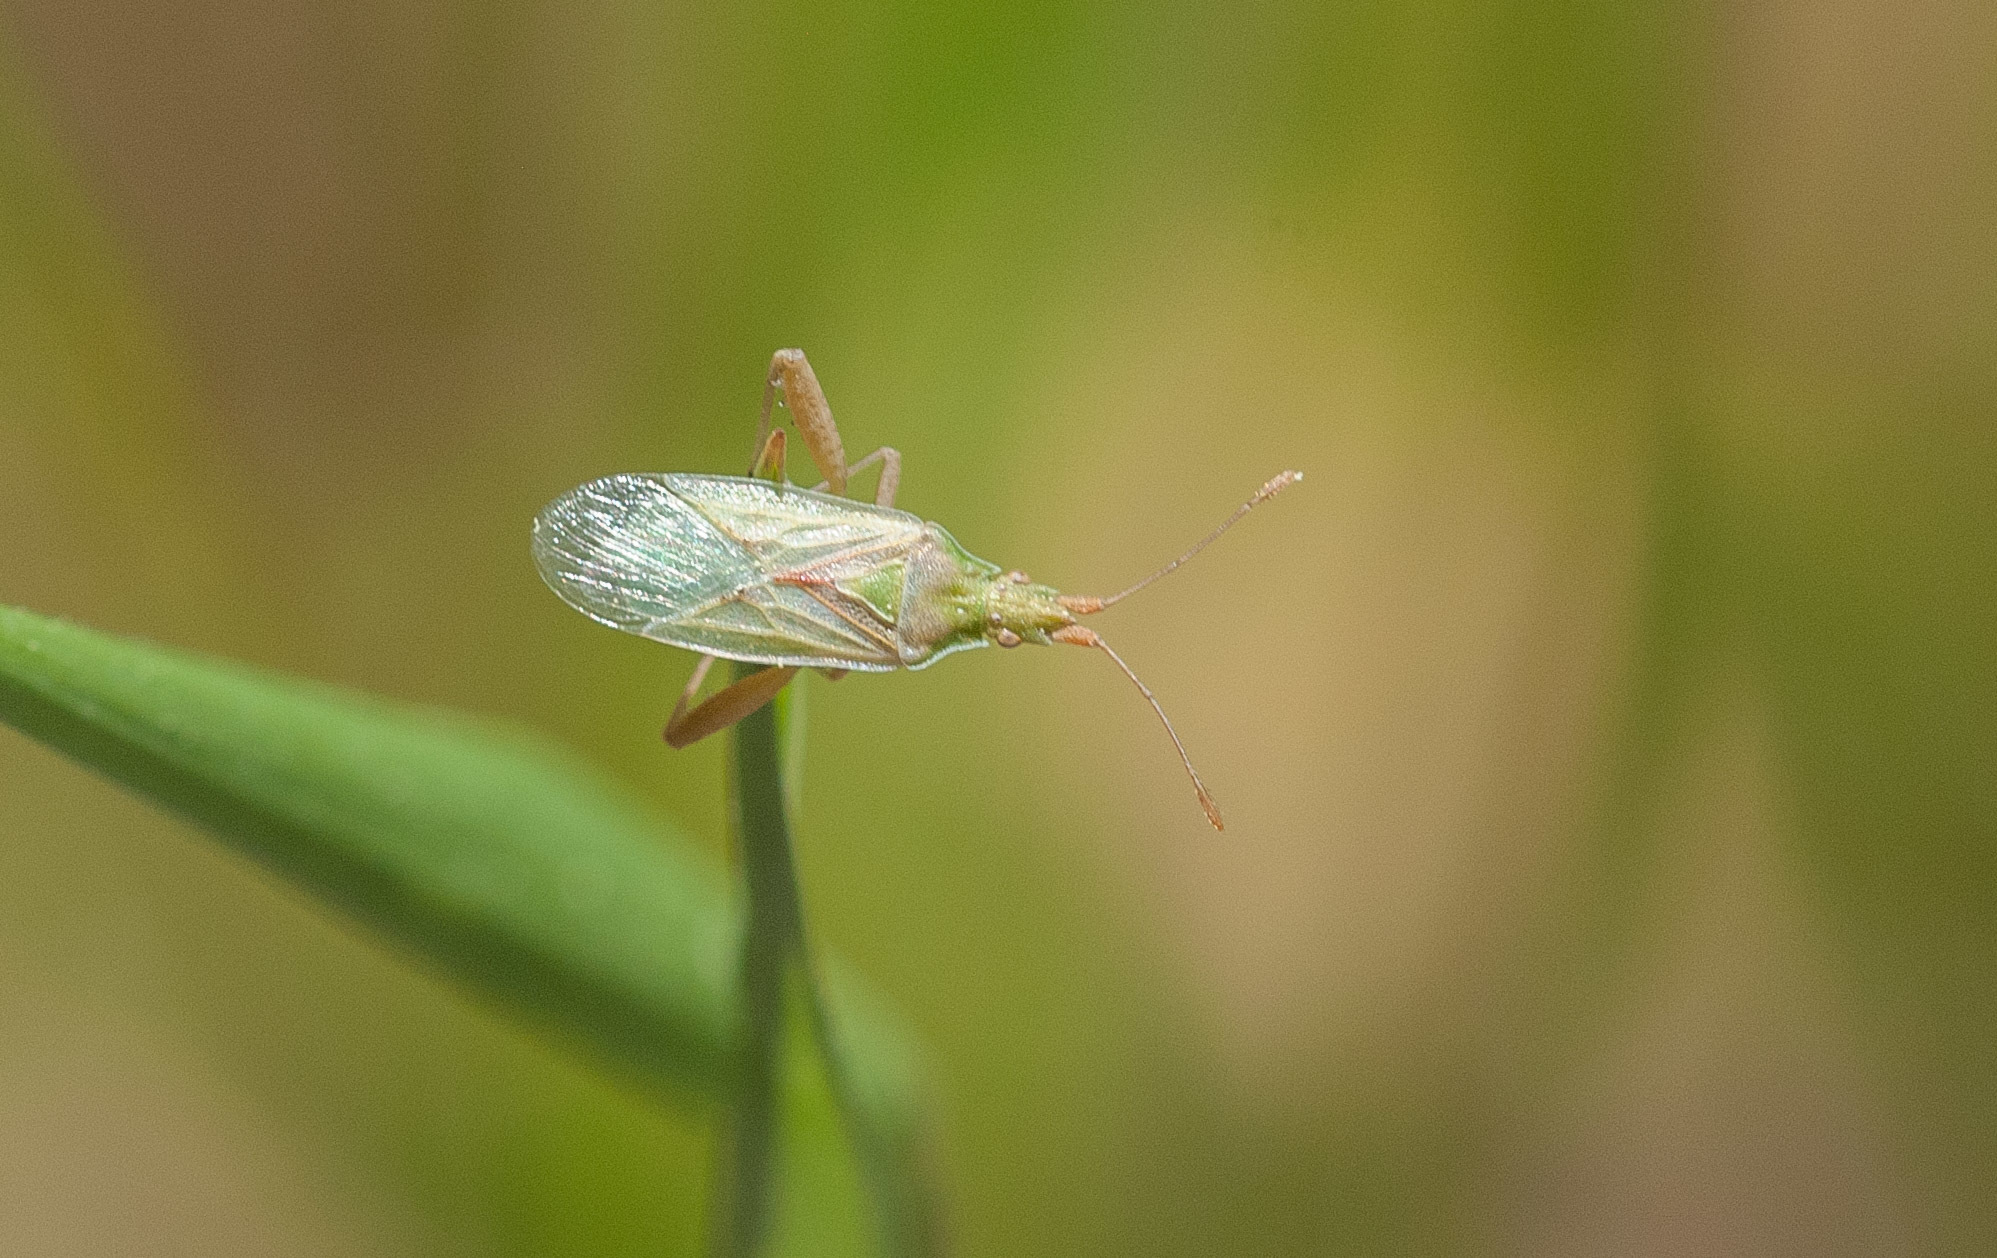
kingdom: Animalia
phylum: Arthropoda
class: Insecta
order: Hemiptera
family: Rhopalidae
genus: Harmostes
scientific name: Harmostes reflexulus
